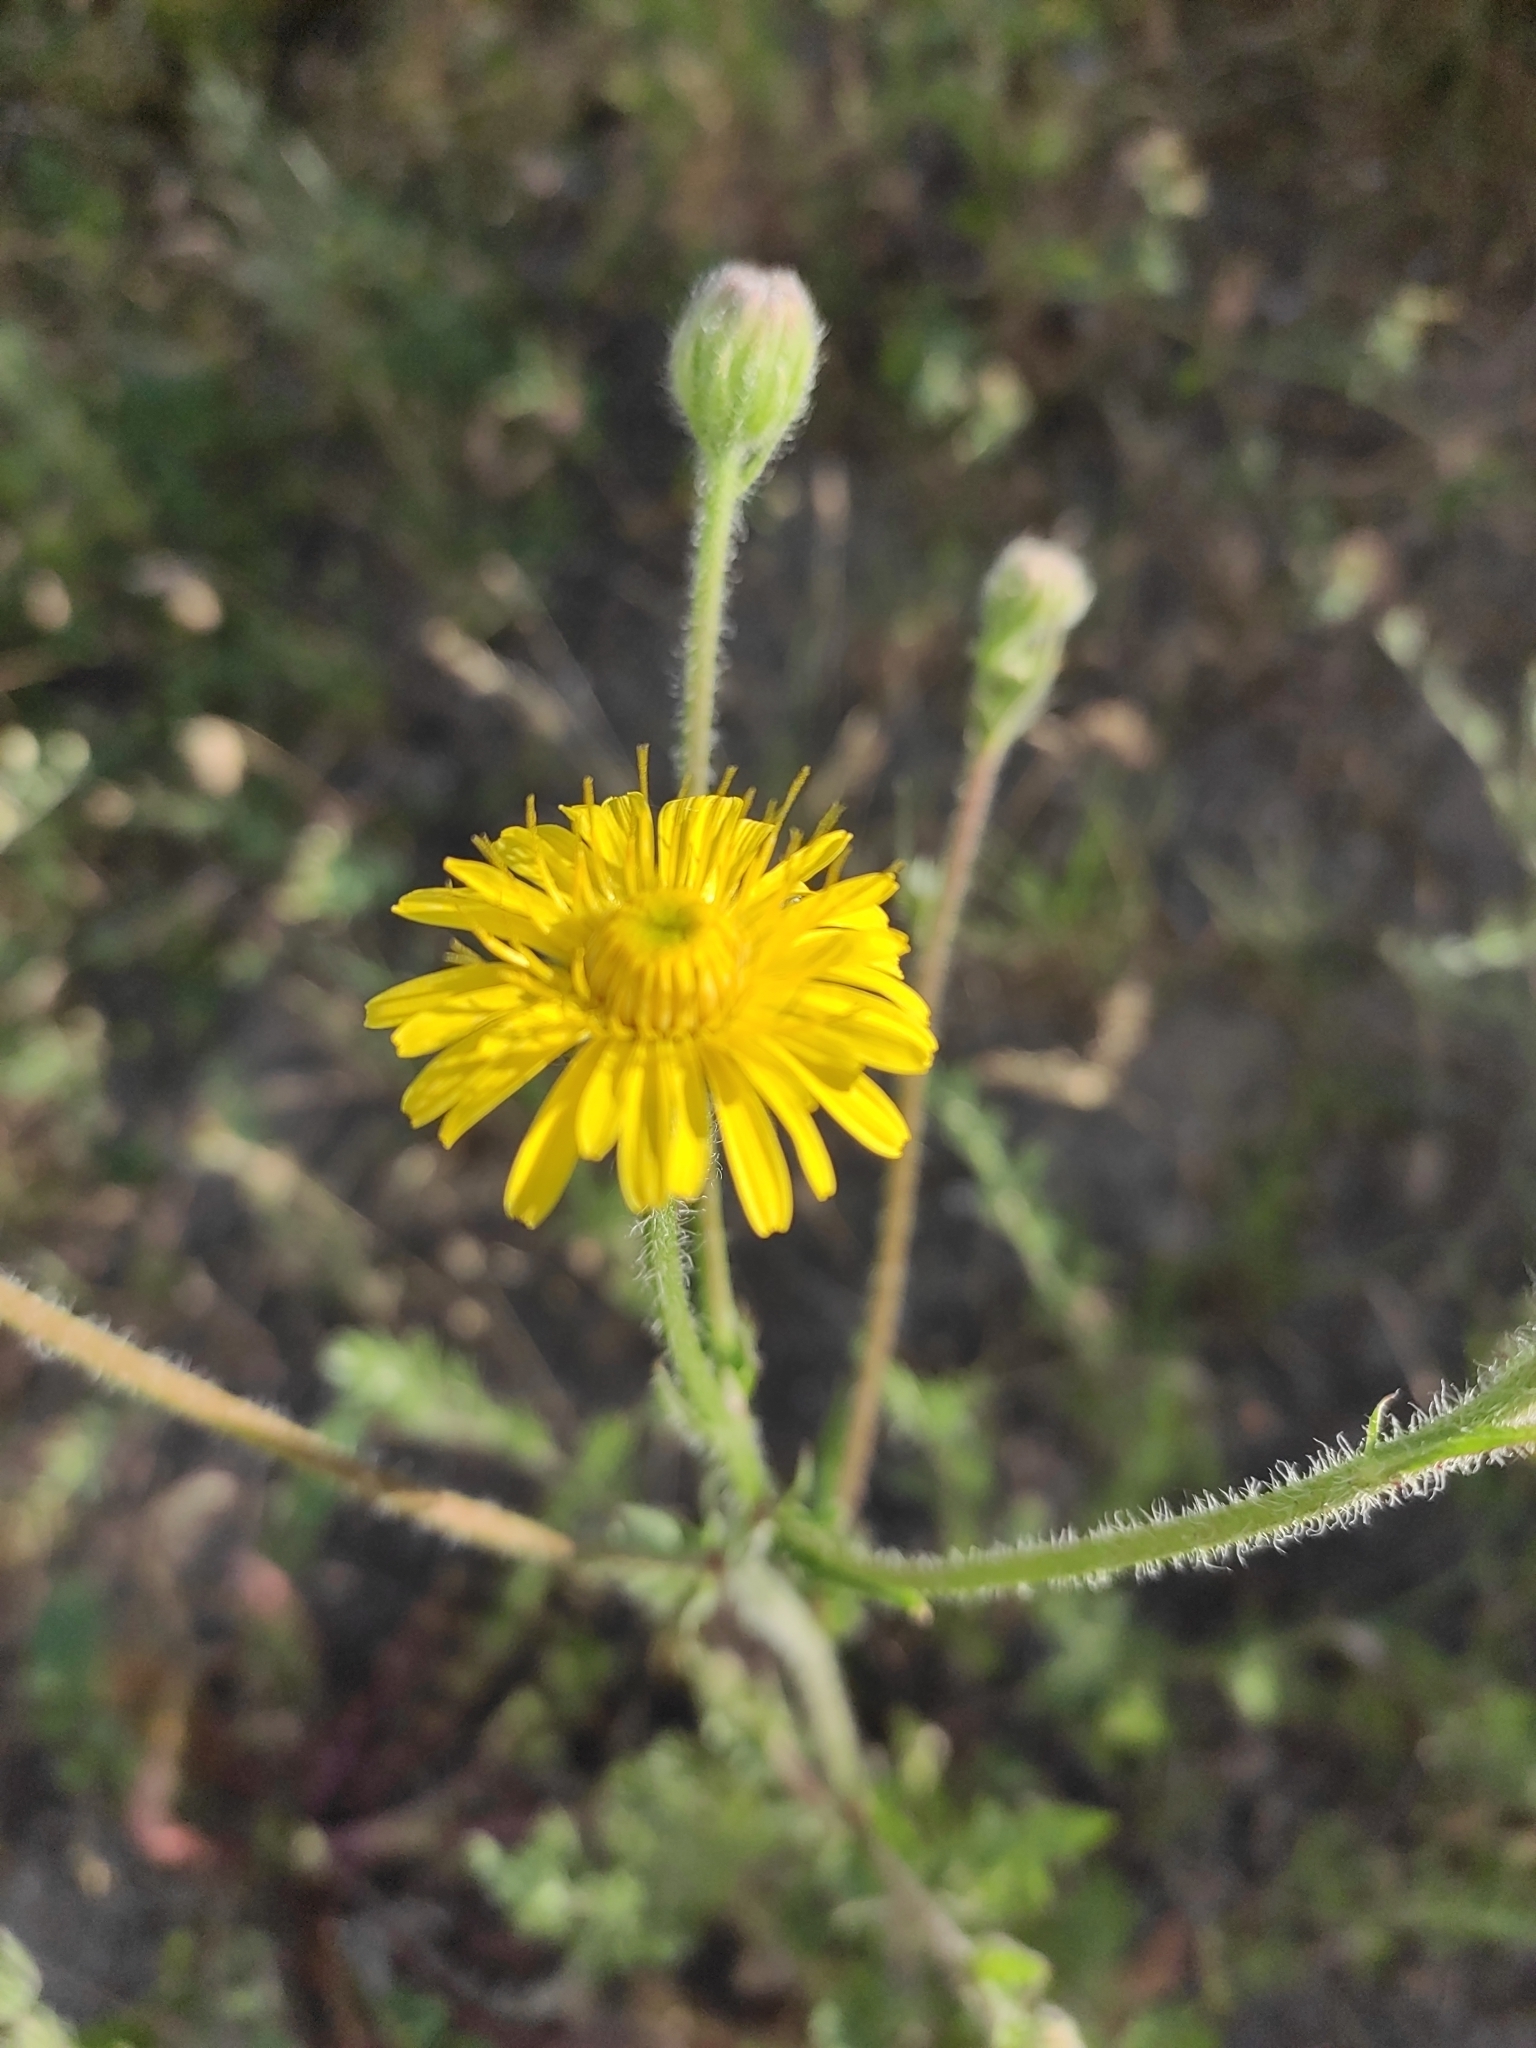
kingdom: Plantae
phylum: Tracheophyta
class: Magnoliopsida
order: Asterales
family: Asteraceae
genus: Crepis
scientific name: Crepis foetida
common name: Stinking hawk's-beard
